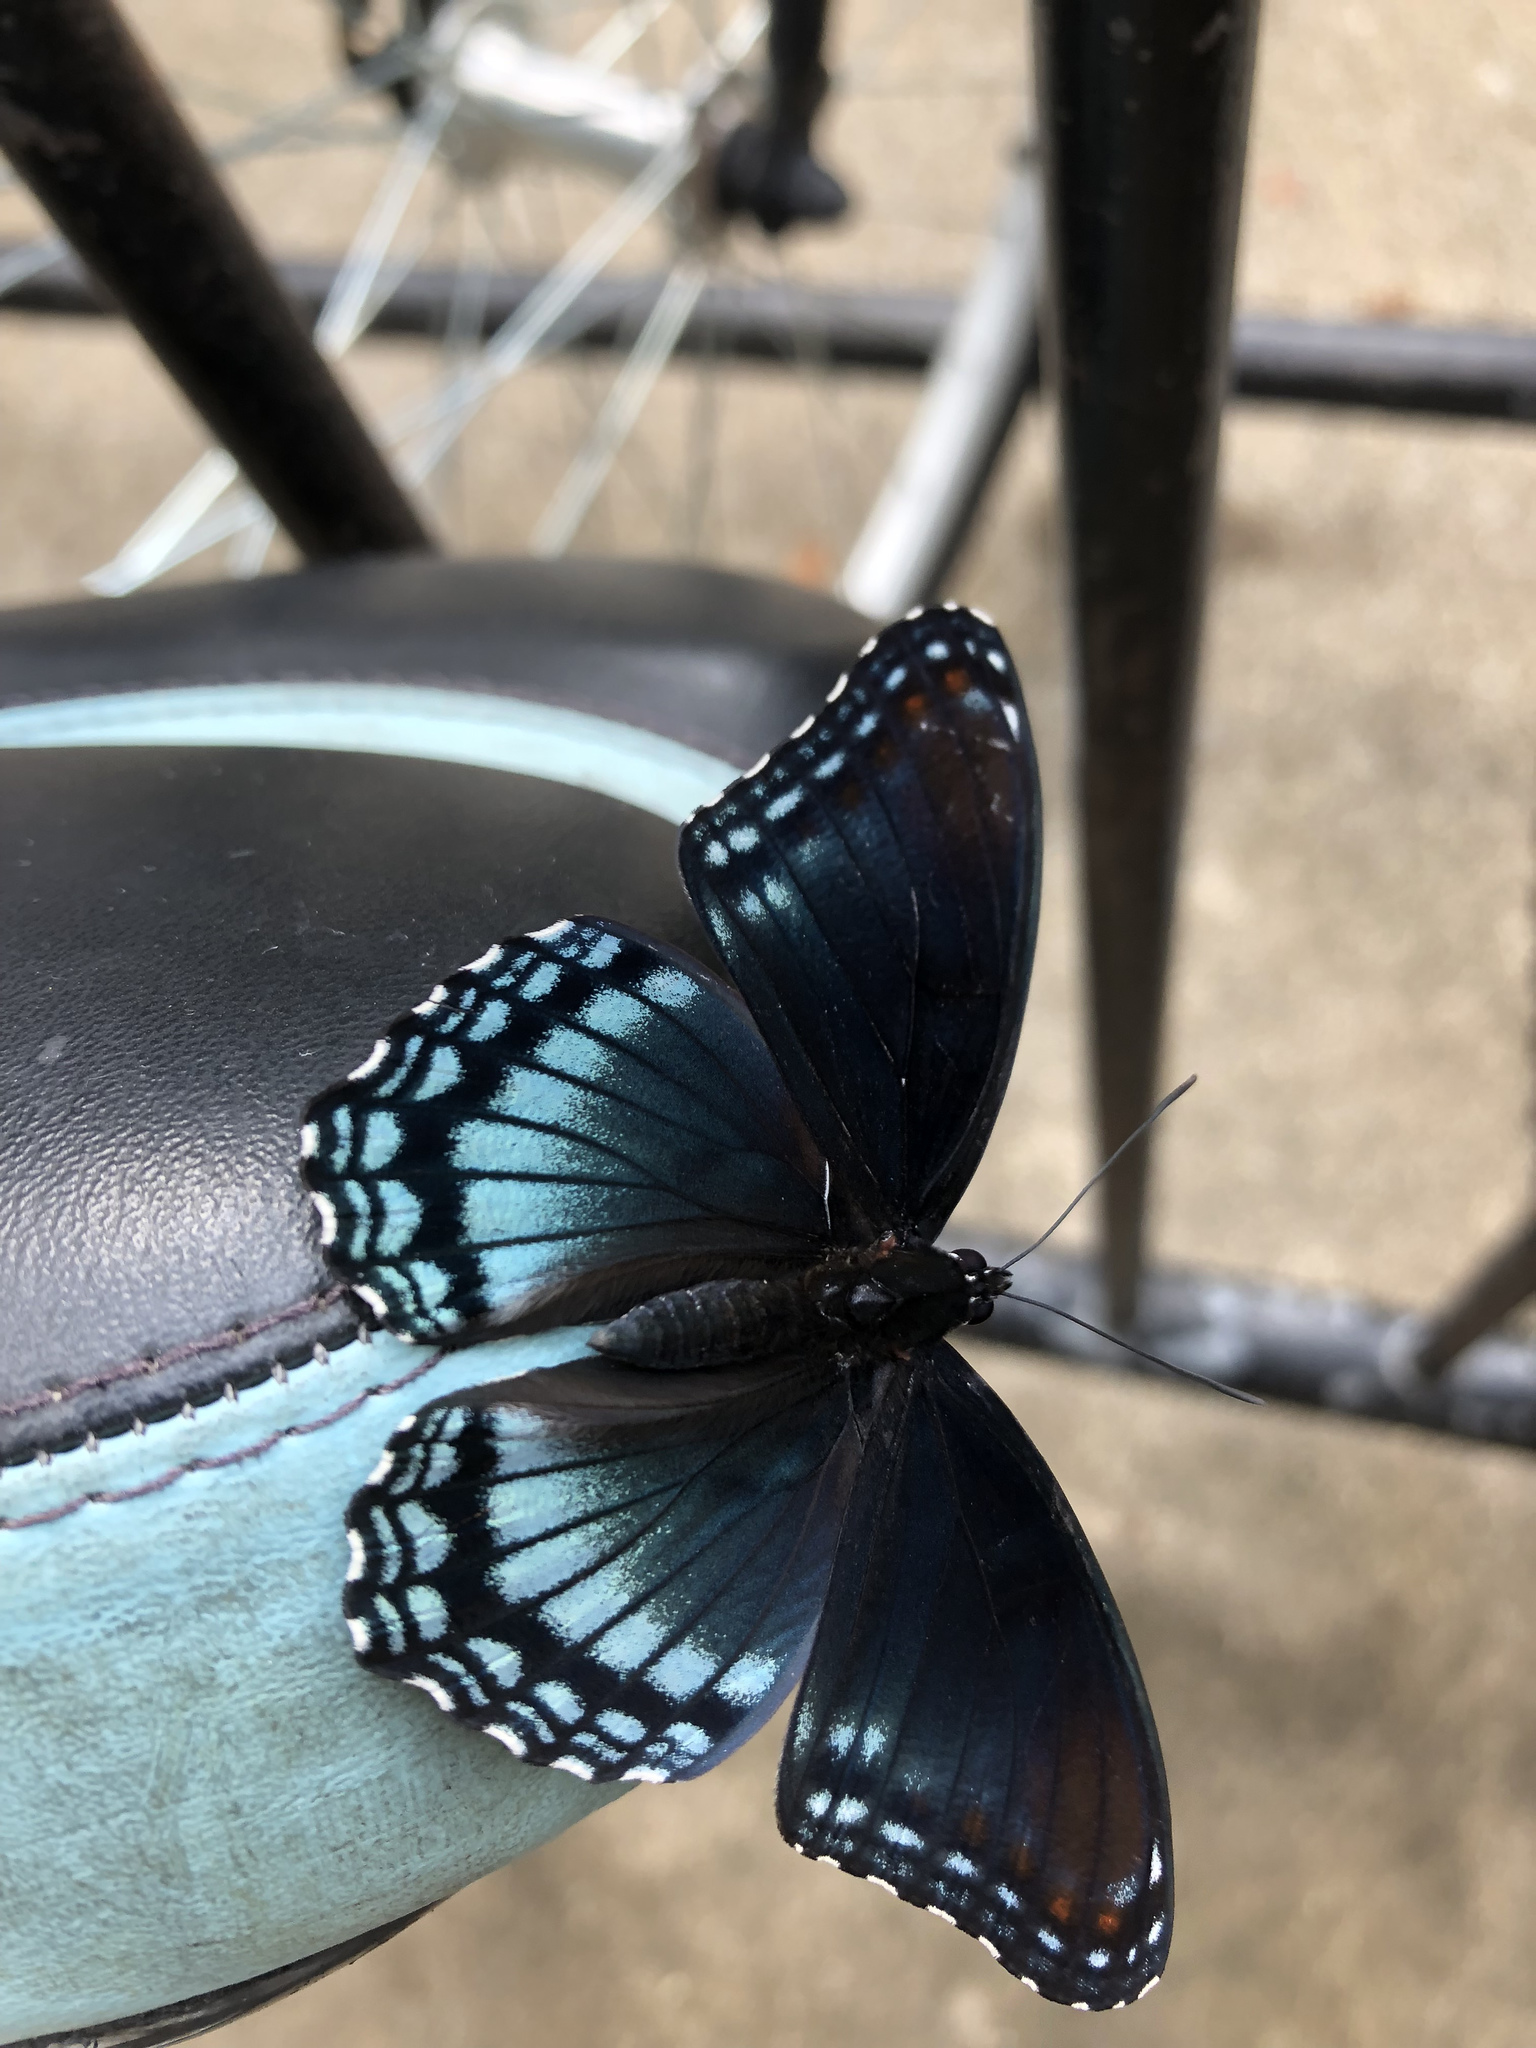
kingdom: Animalia
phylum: Arthropoda
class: Insecta
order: Lepidoptera
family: Nymphalidae
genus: Limenitis
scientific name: Limenitis astyanax
